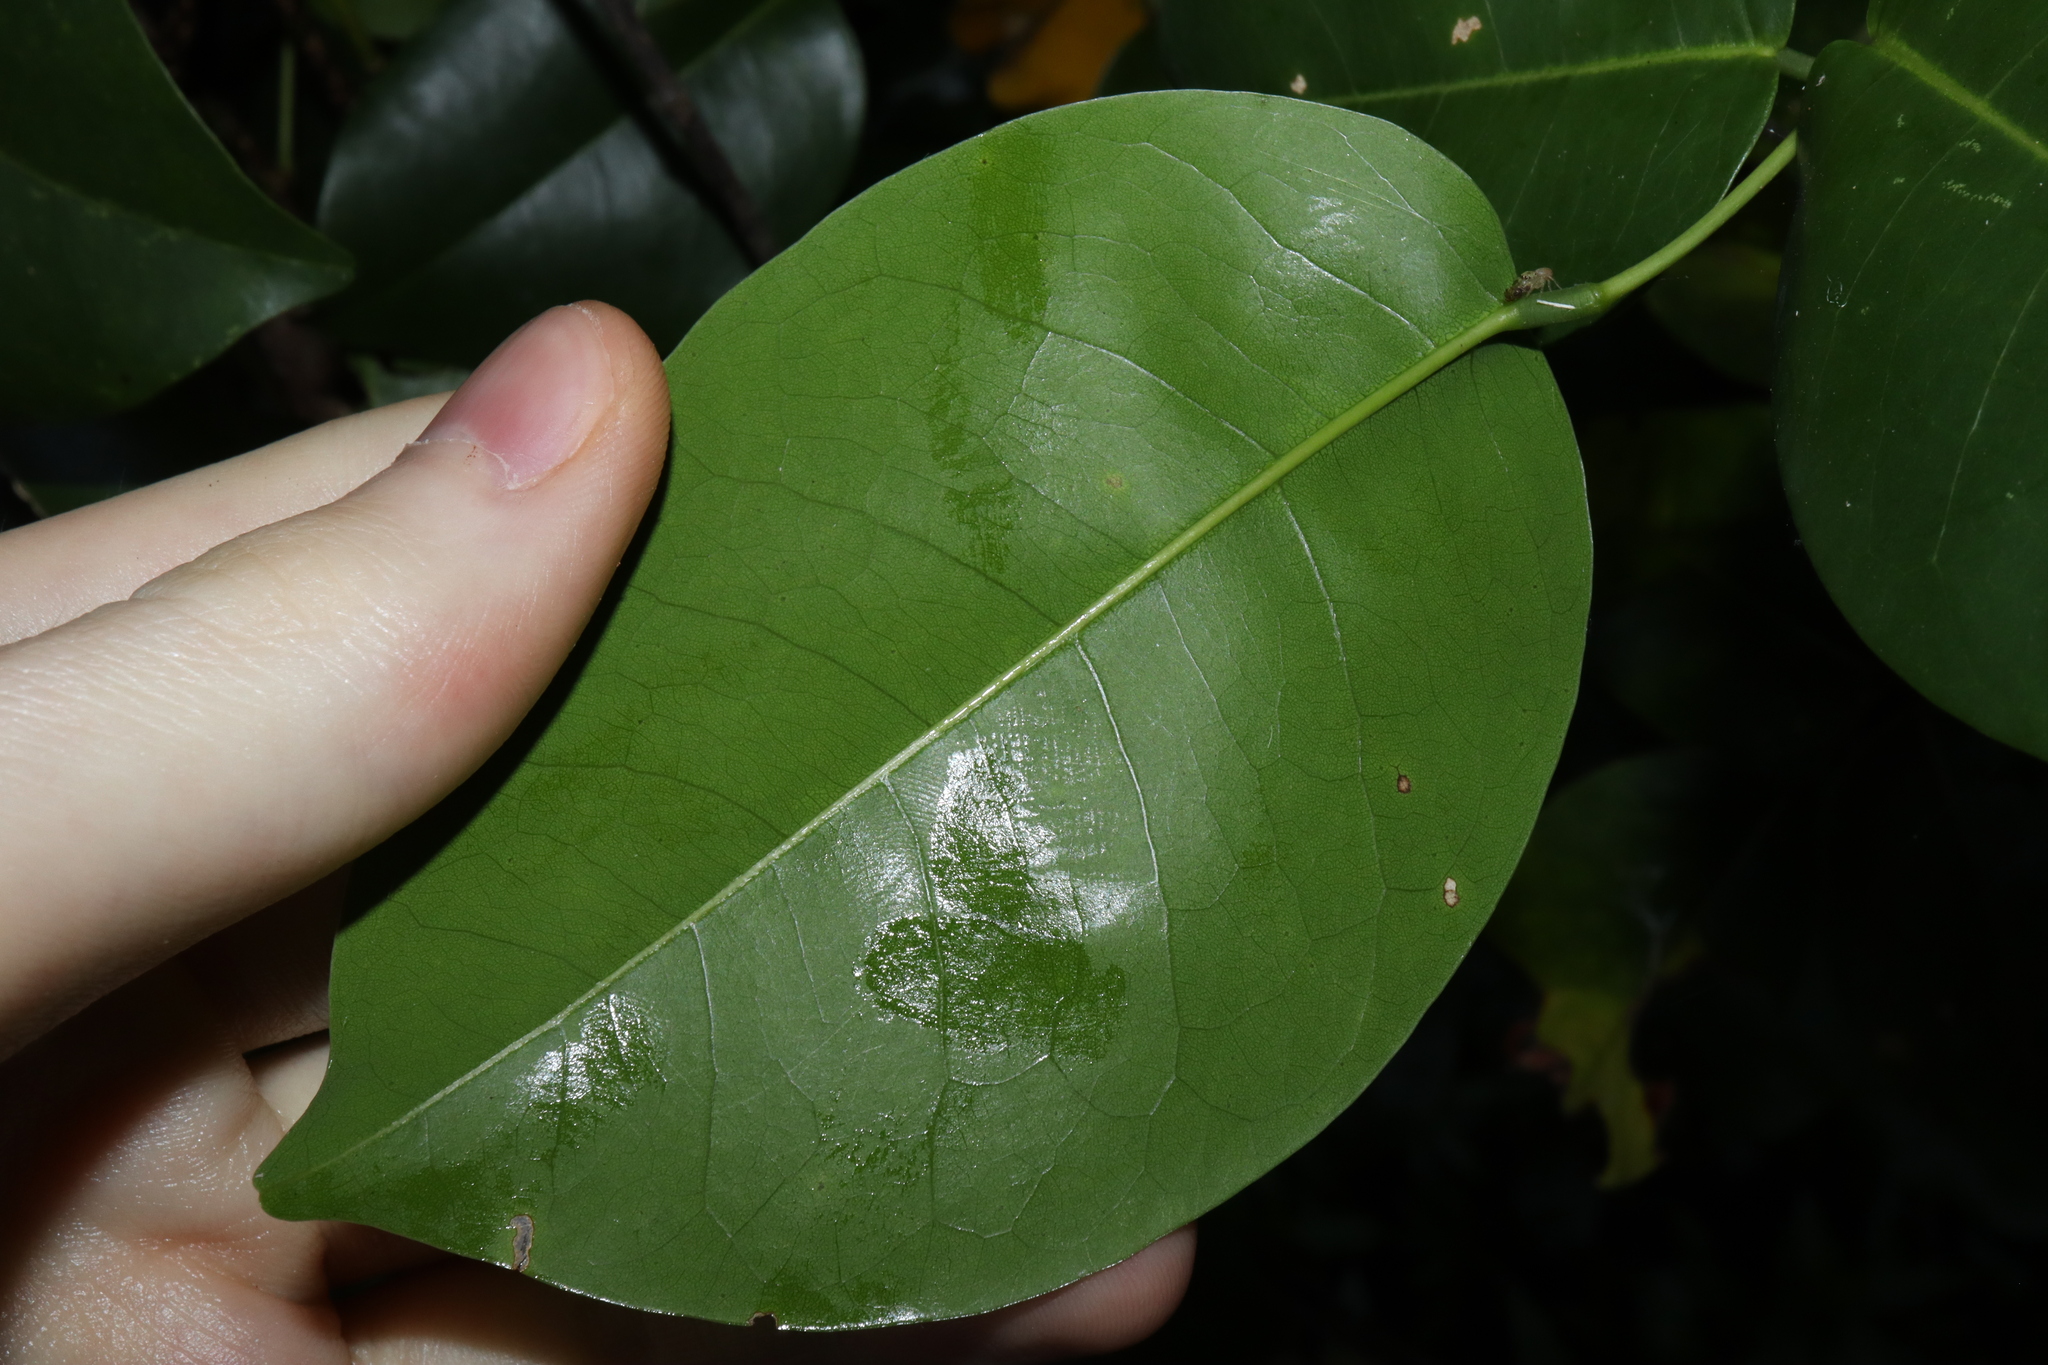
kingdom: Plantae
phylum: Tracheophyta
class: Magnoliopsida
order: Fabales
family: Fabaceae
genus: Derris
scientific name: Derris trifoliata
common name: Three-leaf derris
